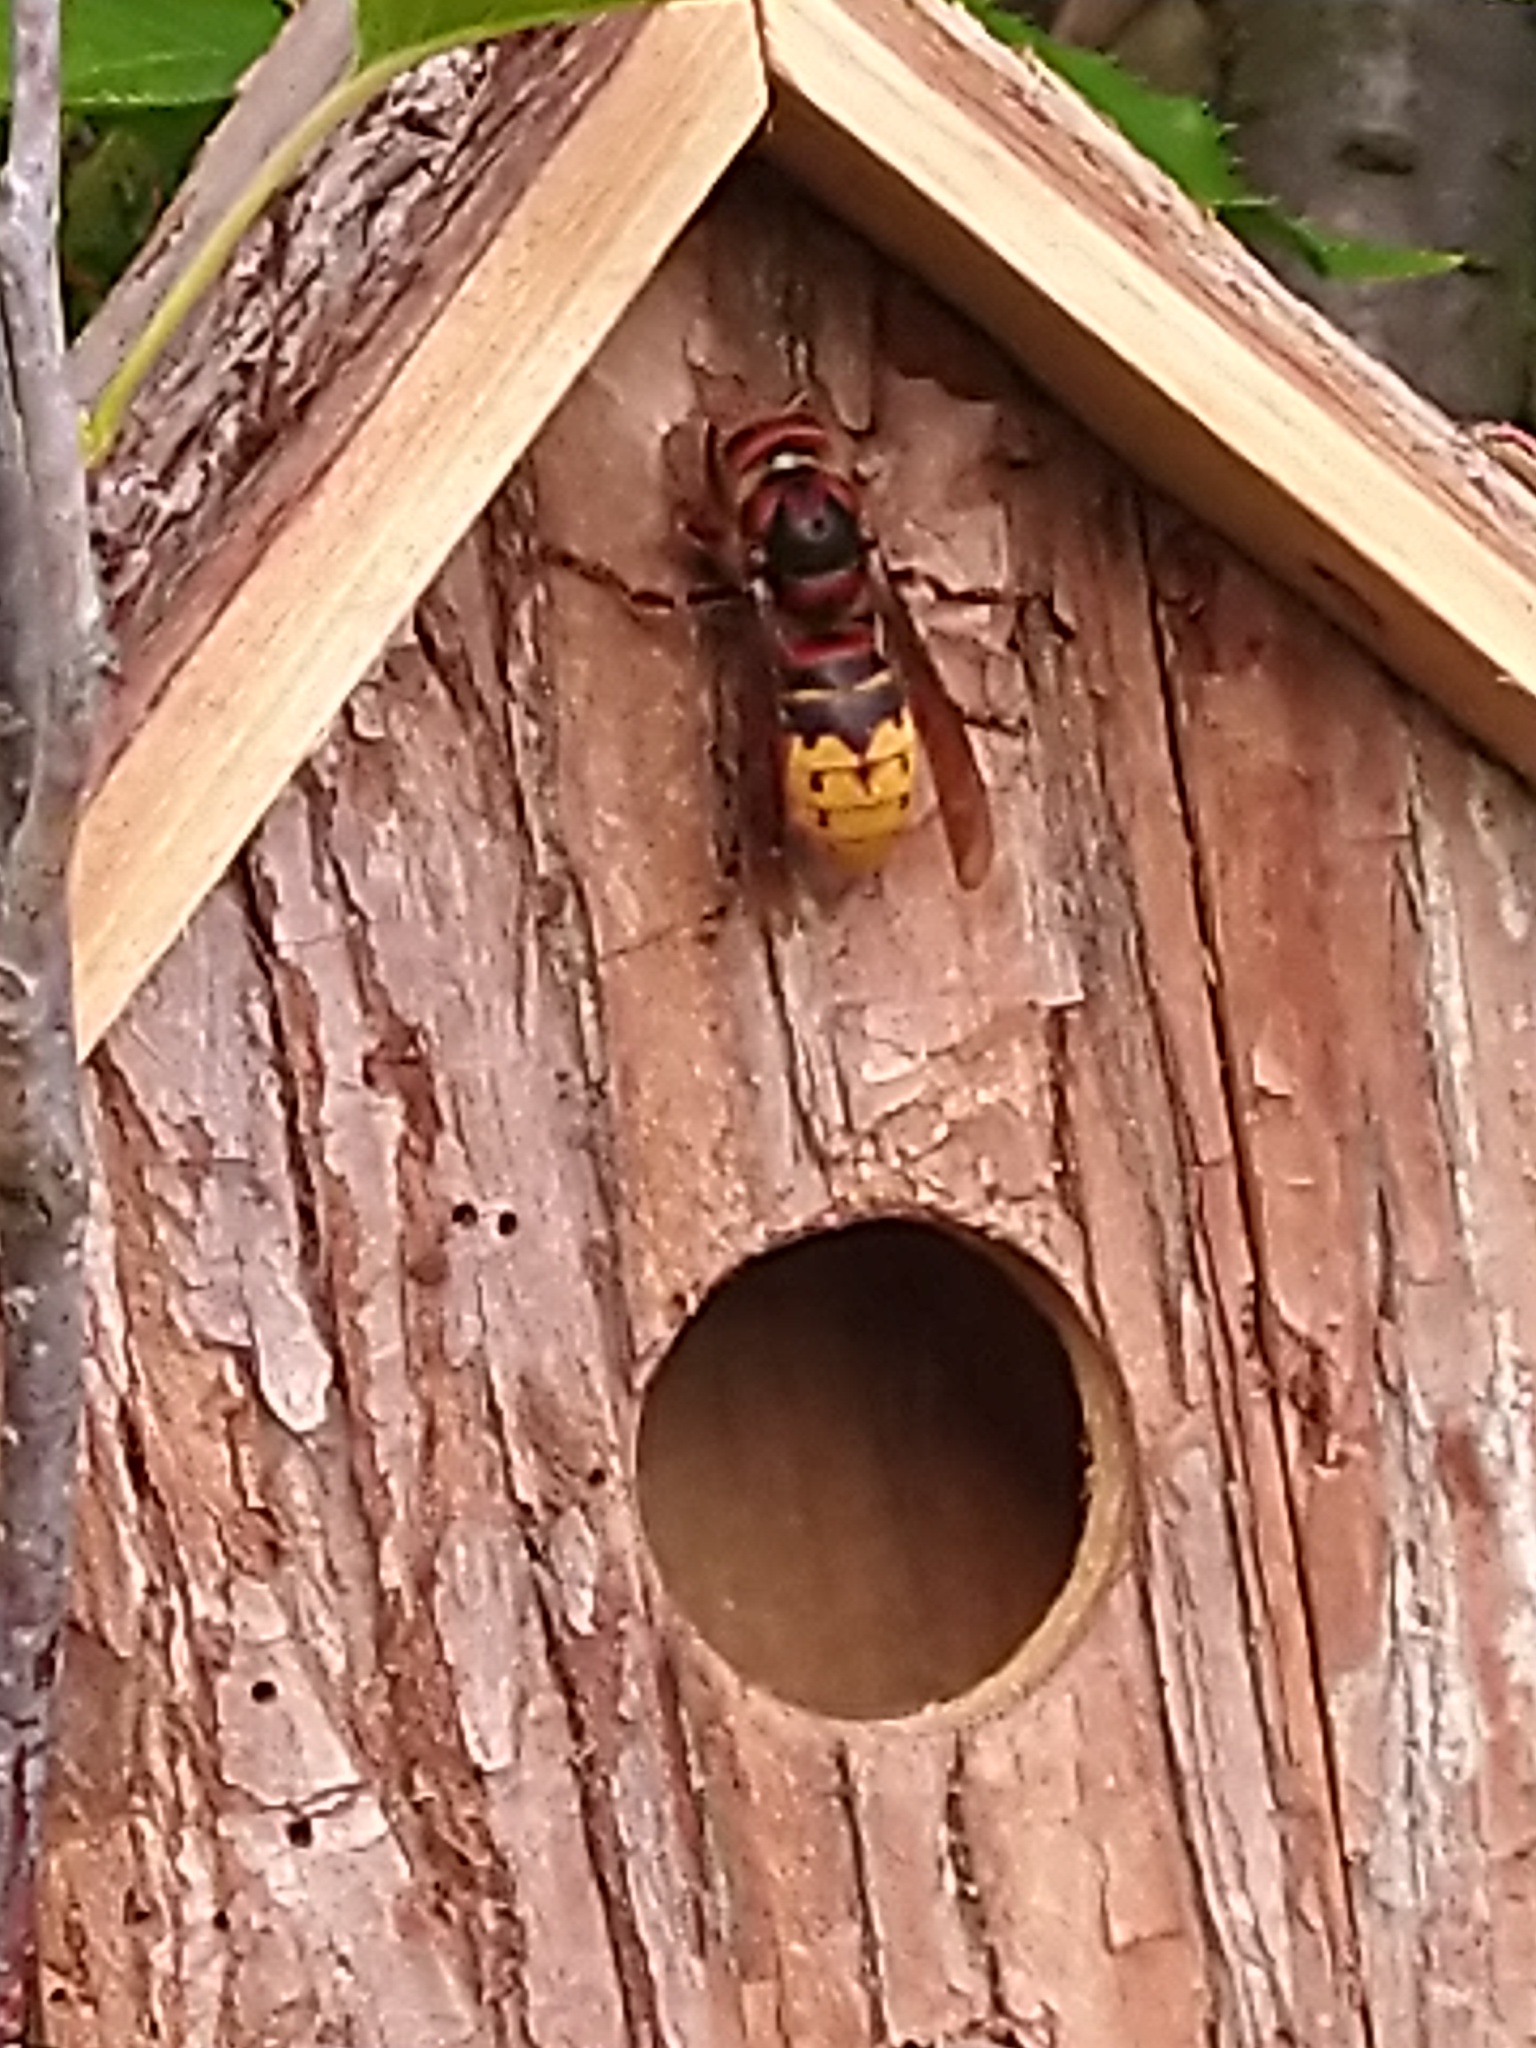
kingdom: Animalia
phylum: Arthropoda
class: Insecta
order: Hymenoptera
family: Vespidae
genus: Vespa
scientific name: Vespa crabro
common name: Hornet
